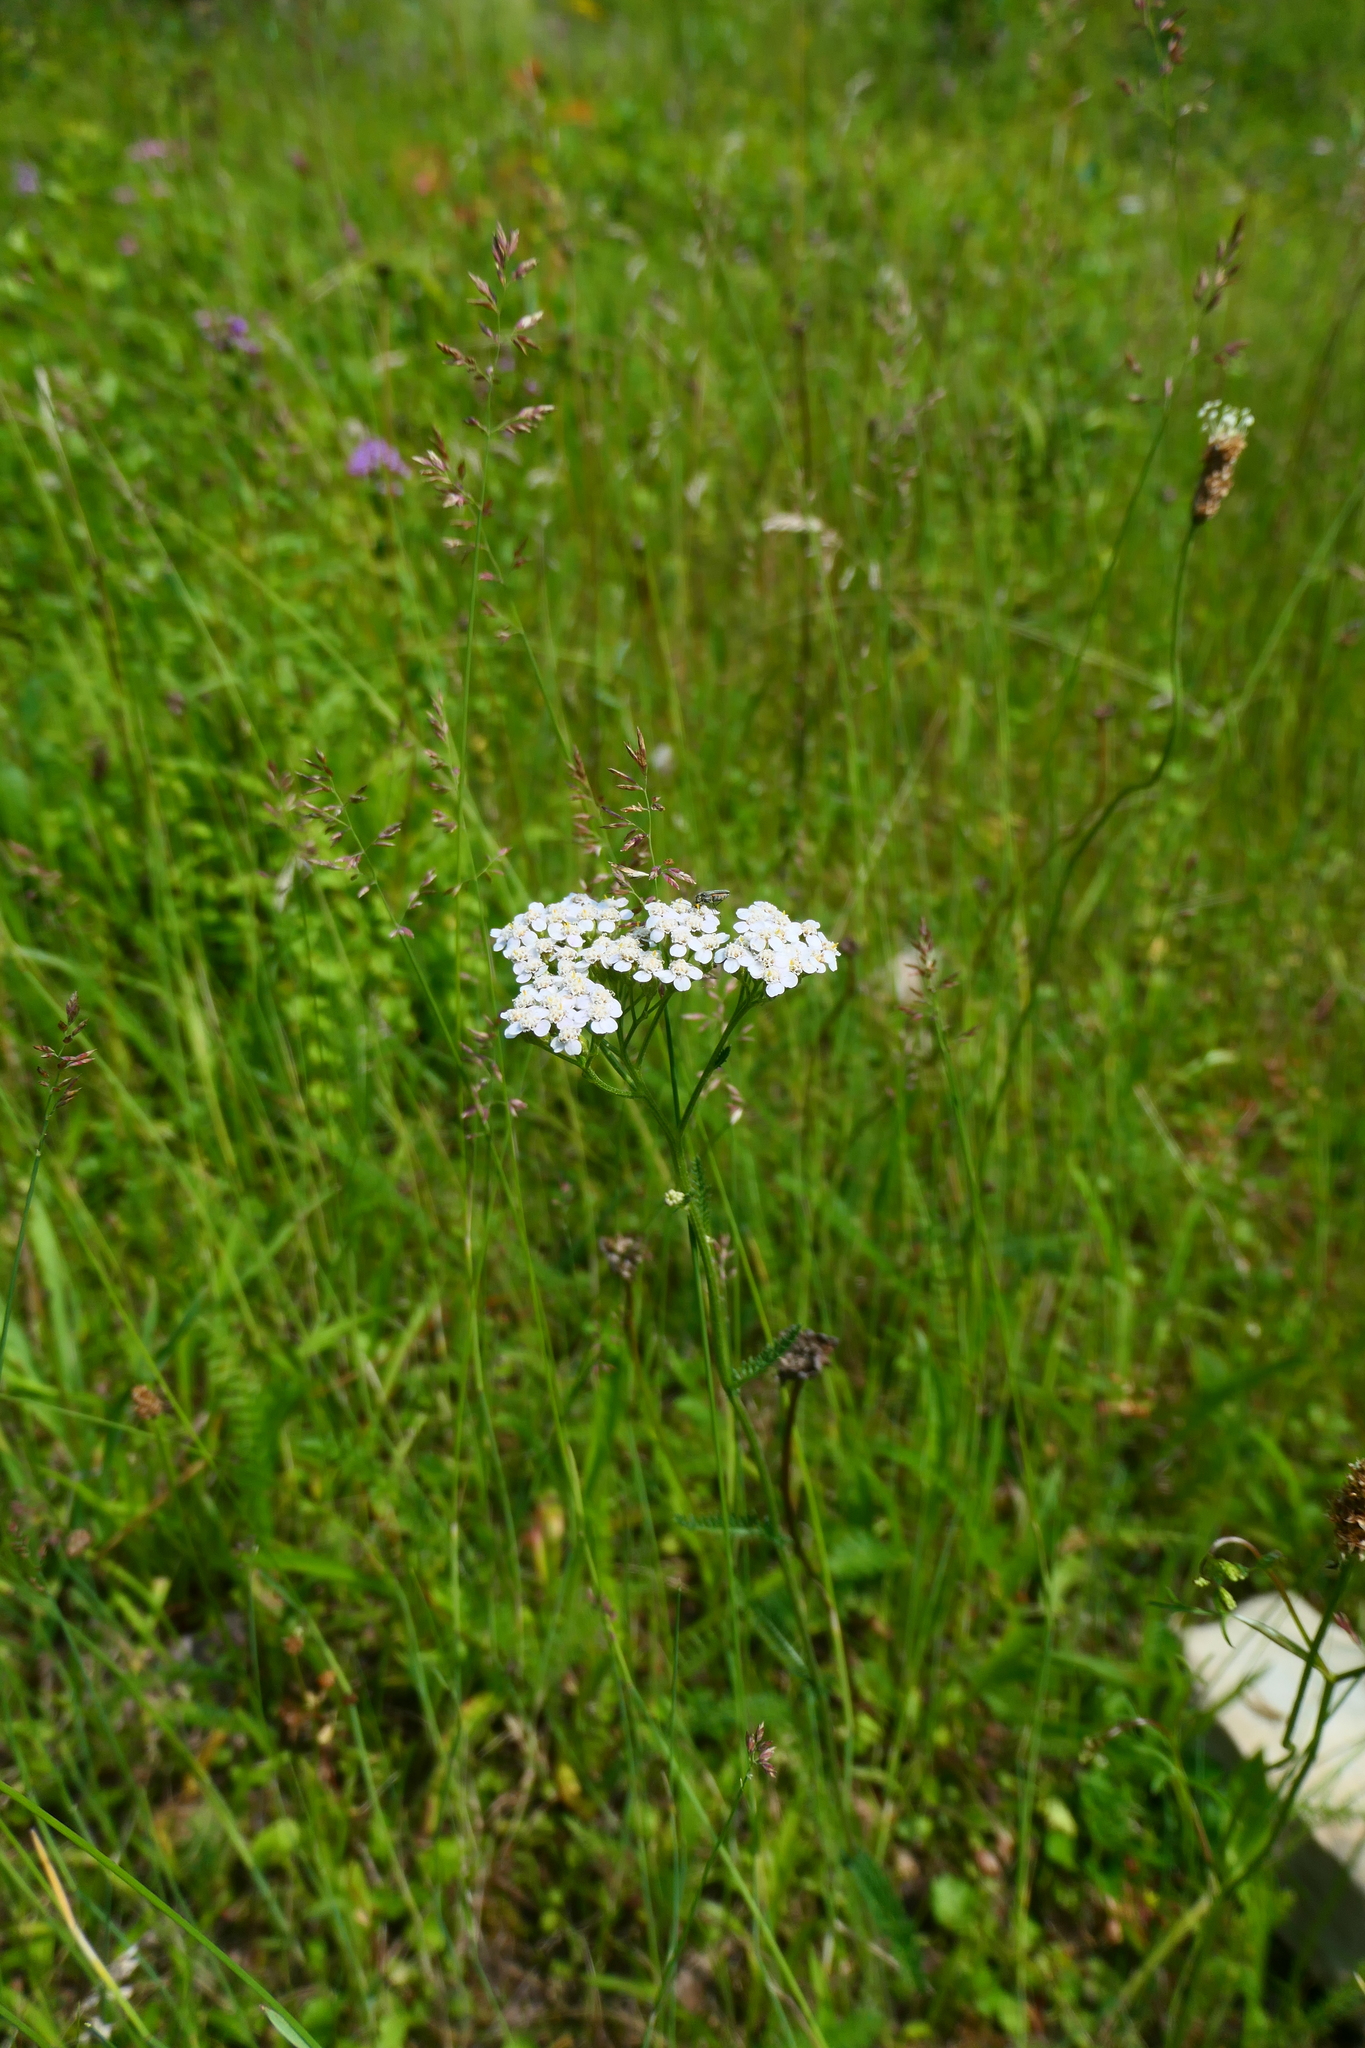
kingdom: Plantae
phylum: Tracheophyta
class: Magnoliopsida
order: Asterales
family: Asteraceae
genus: Achillea
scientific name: Achillea millefolium
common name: Yarrow
